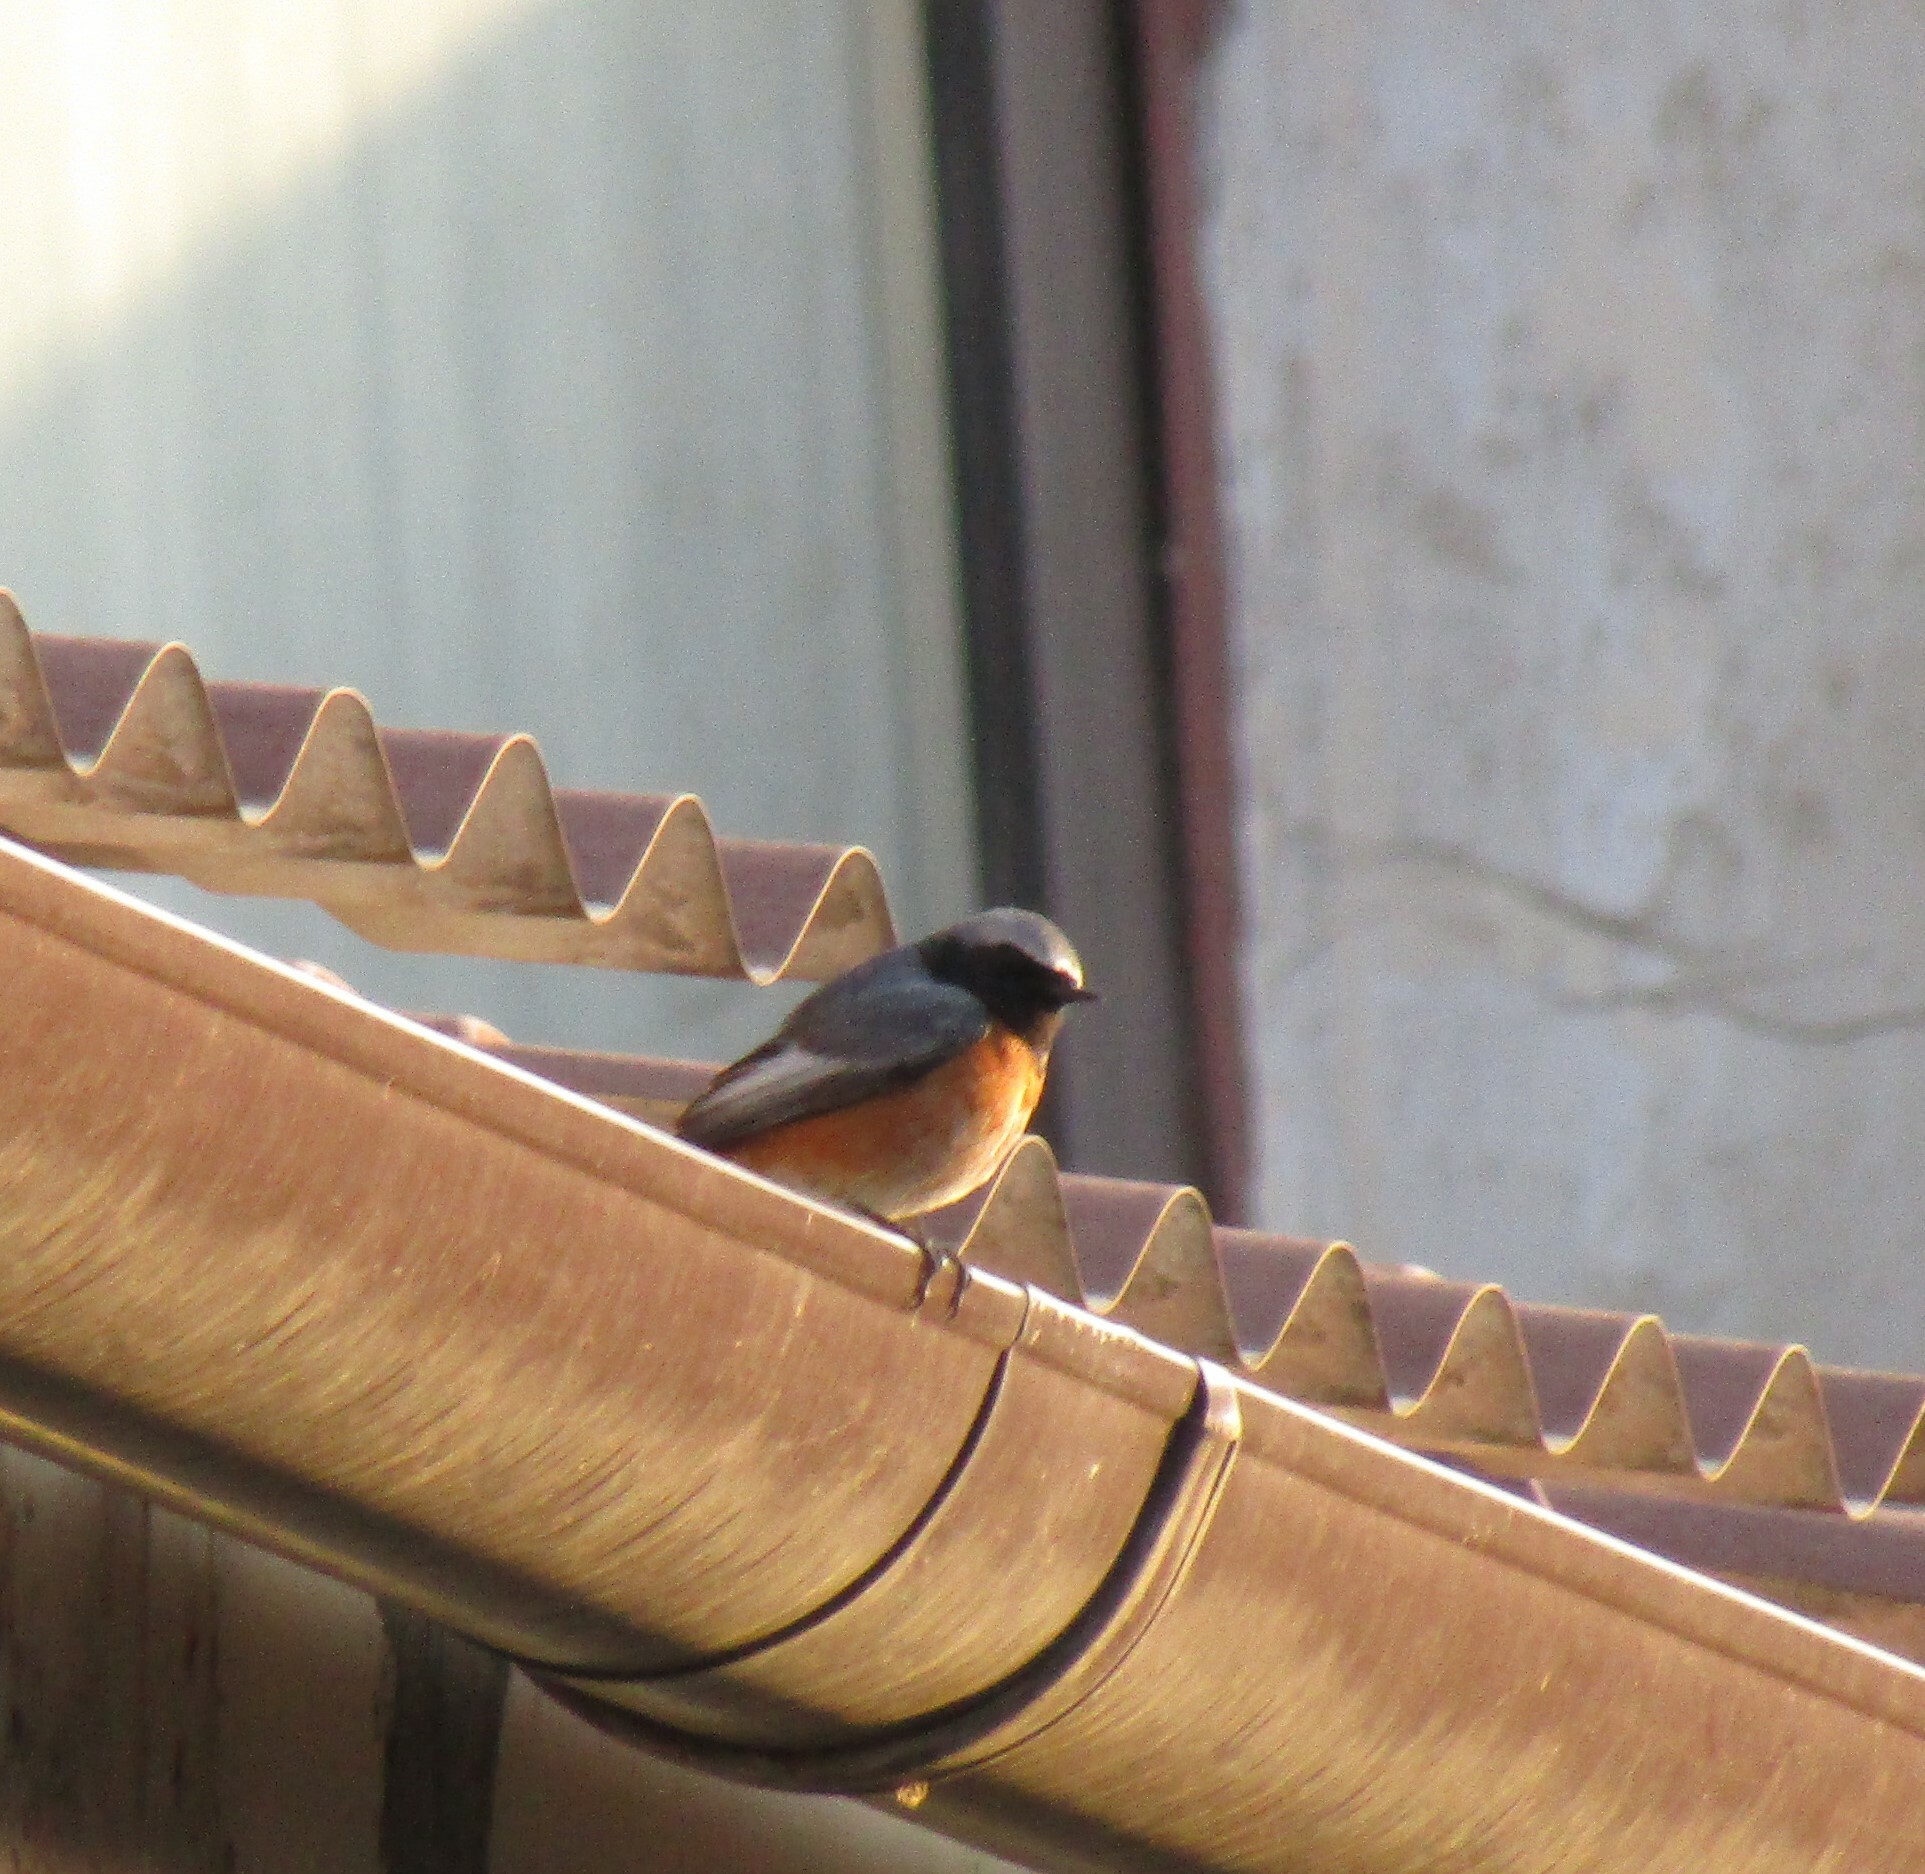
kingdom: Animalia
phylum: Chordata
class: Aves
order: Passeriformes
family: Muscicapidae
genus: Phoenicurus
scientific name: Phoenicurus phoenicurus
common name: Common redstart
